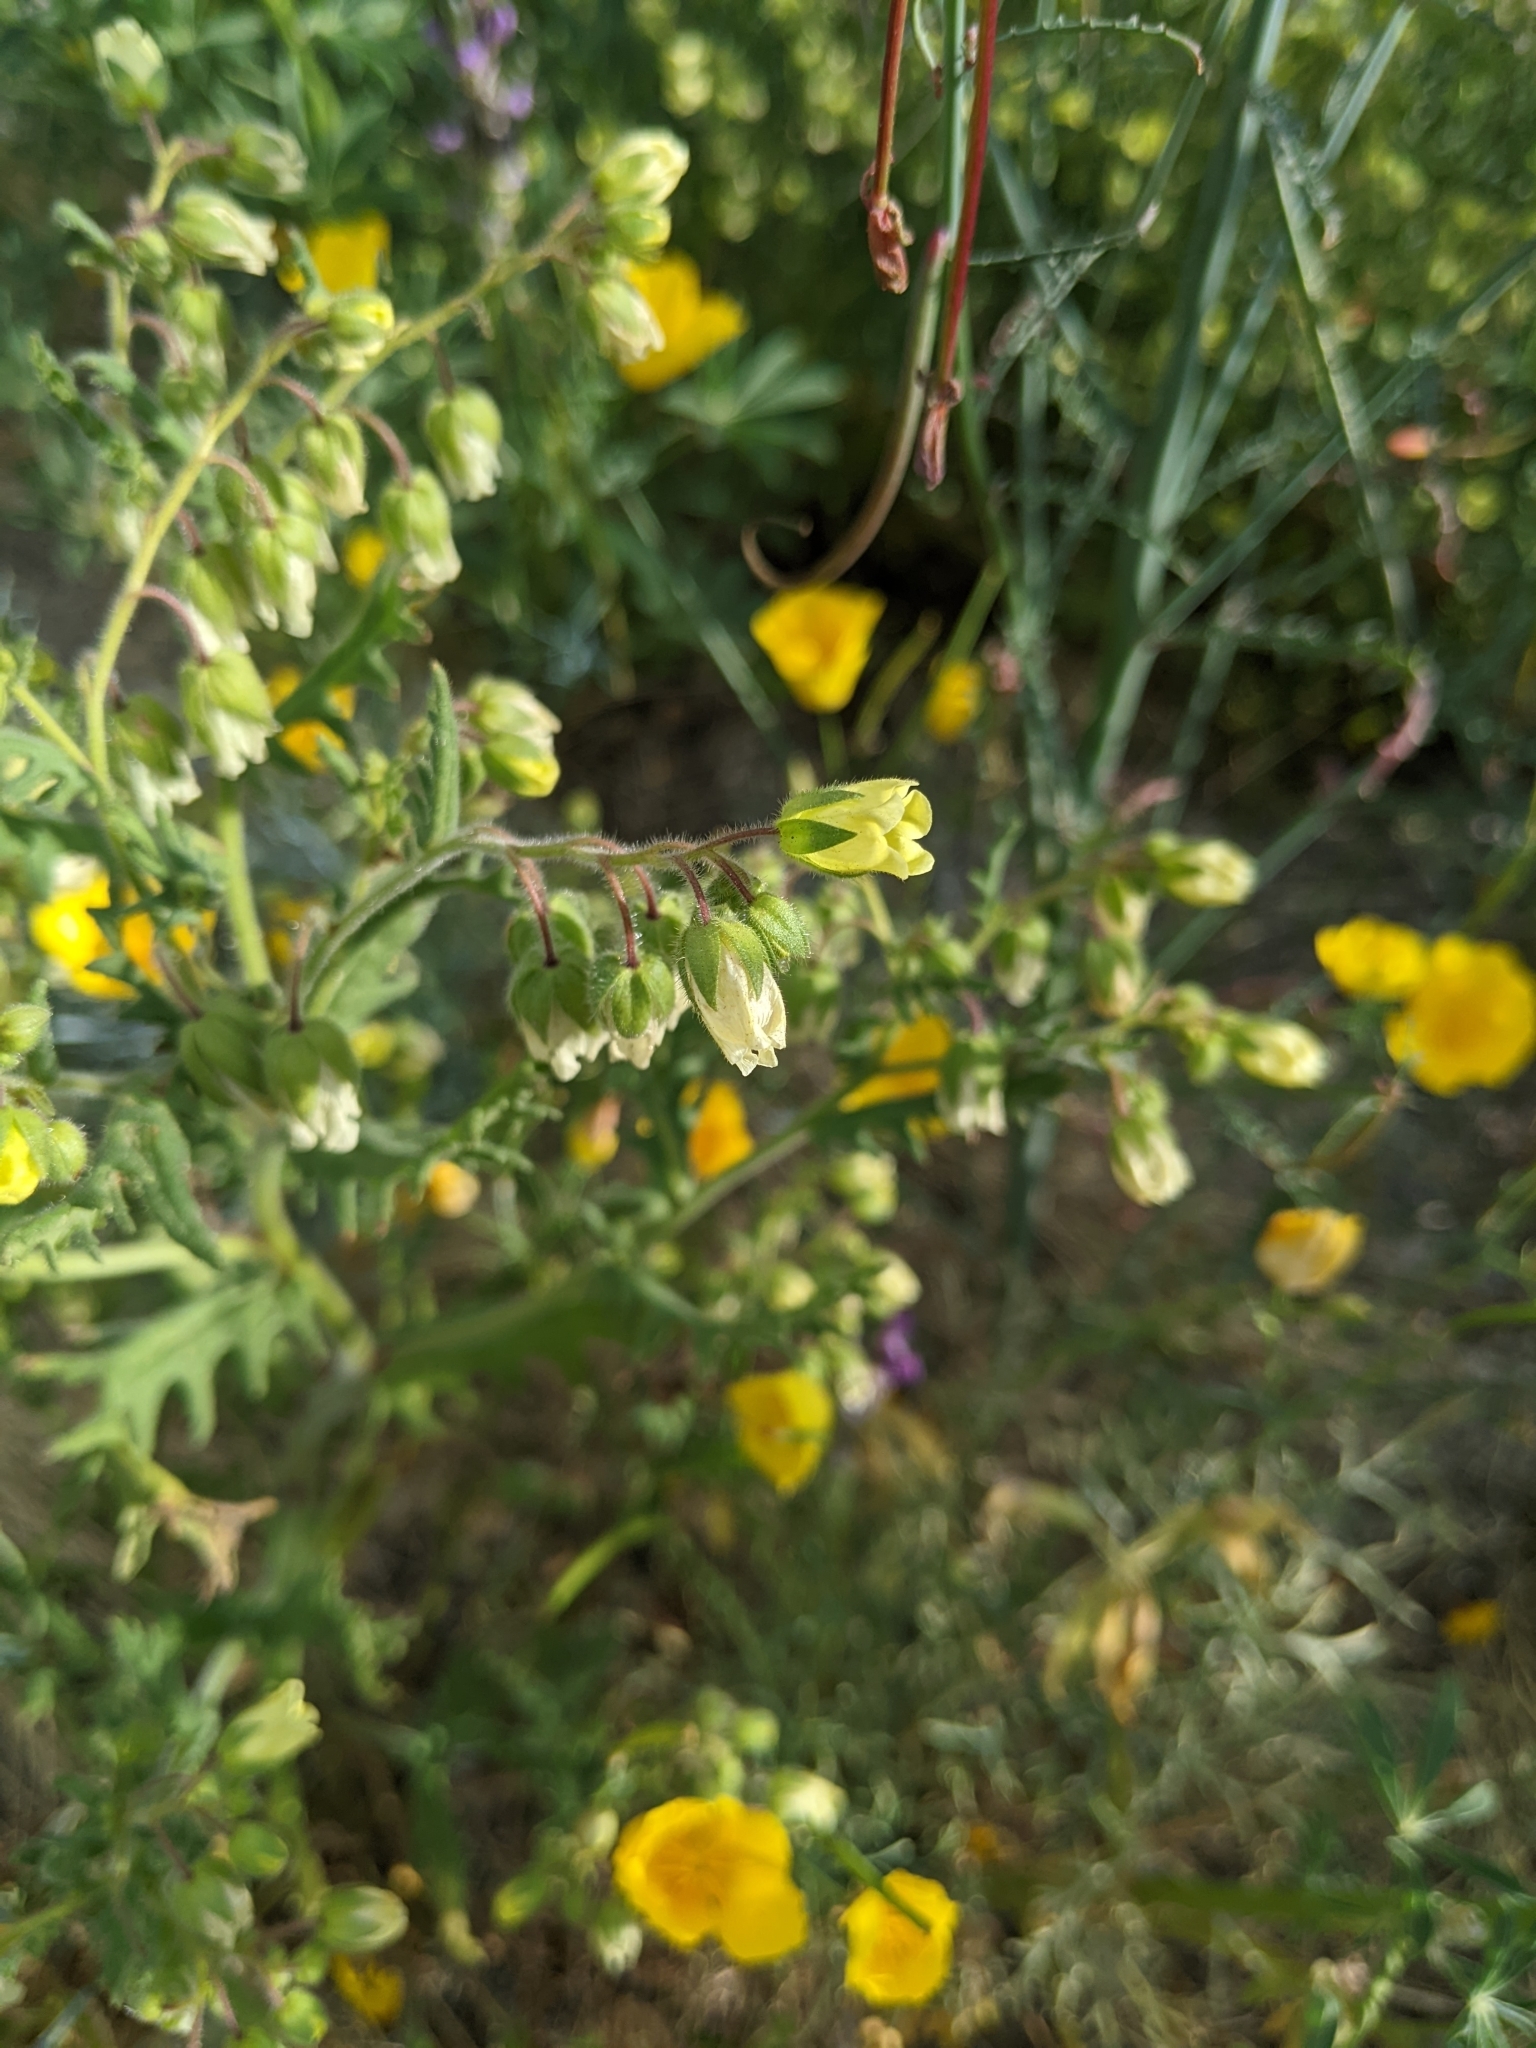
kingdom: Plantae
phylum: Tracheophyta
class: Magnoliopsida
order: Boraginales
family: Hydrophyllaceae
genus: Emmenanthe
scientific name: Emmenanthe penduliflora
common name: Whispering-bells
